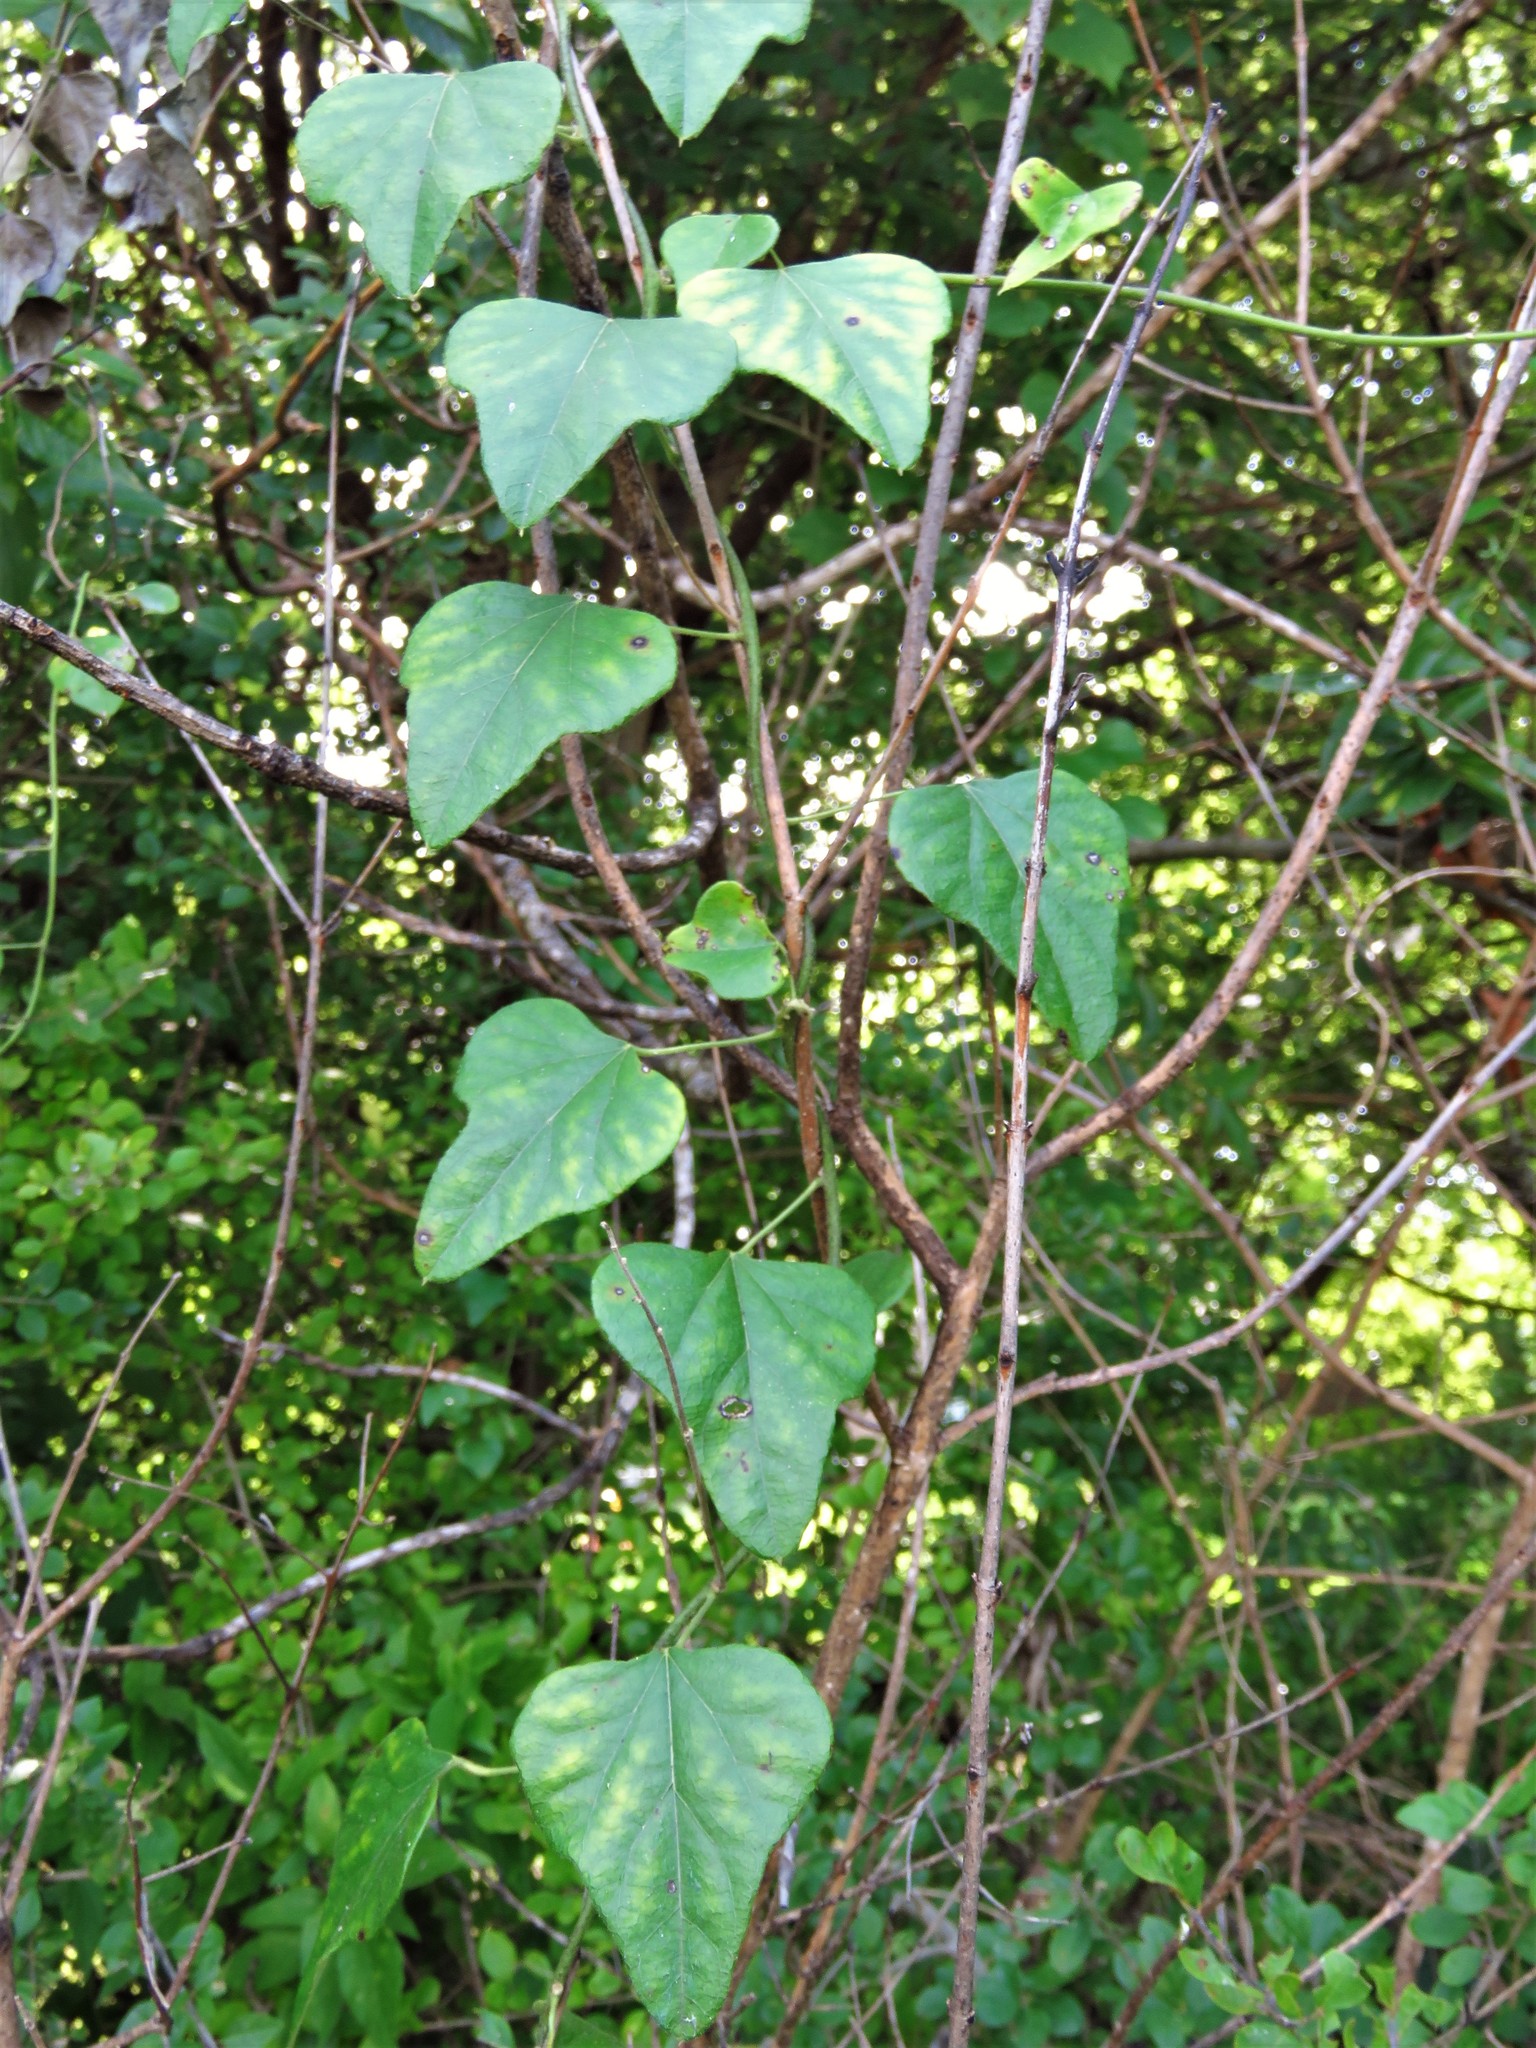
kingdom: Plantae
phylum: Tracheophyta
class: Magnoliopsida
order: Ranunculales
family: Menispermaceae
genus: Cocculus
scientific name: Cocculus carolinus
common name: Carolina moonseed
